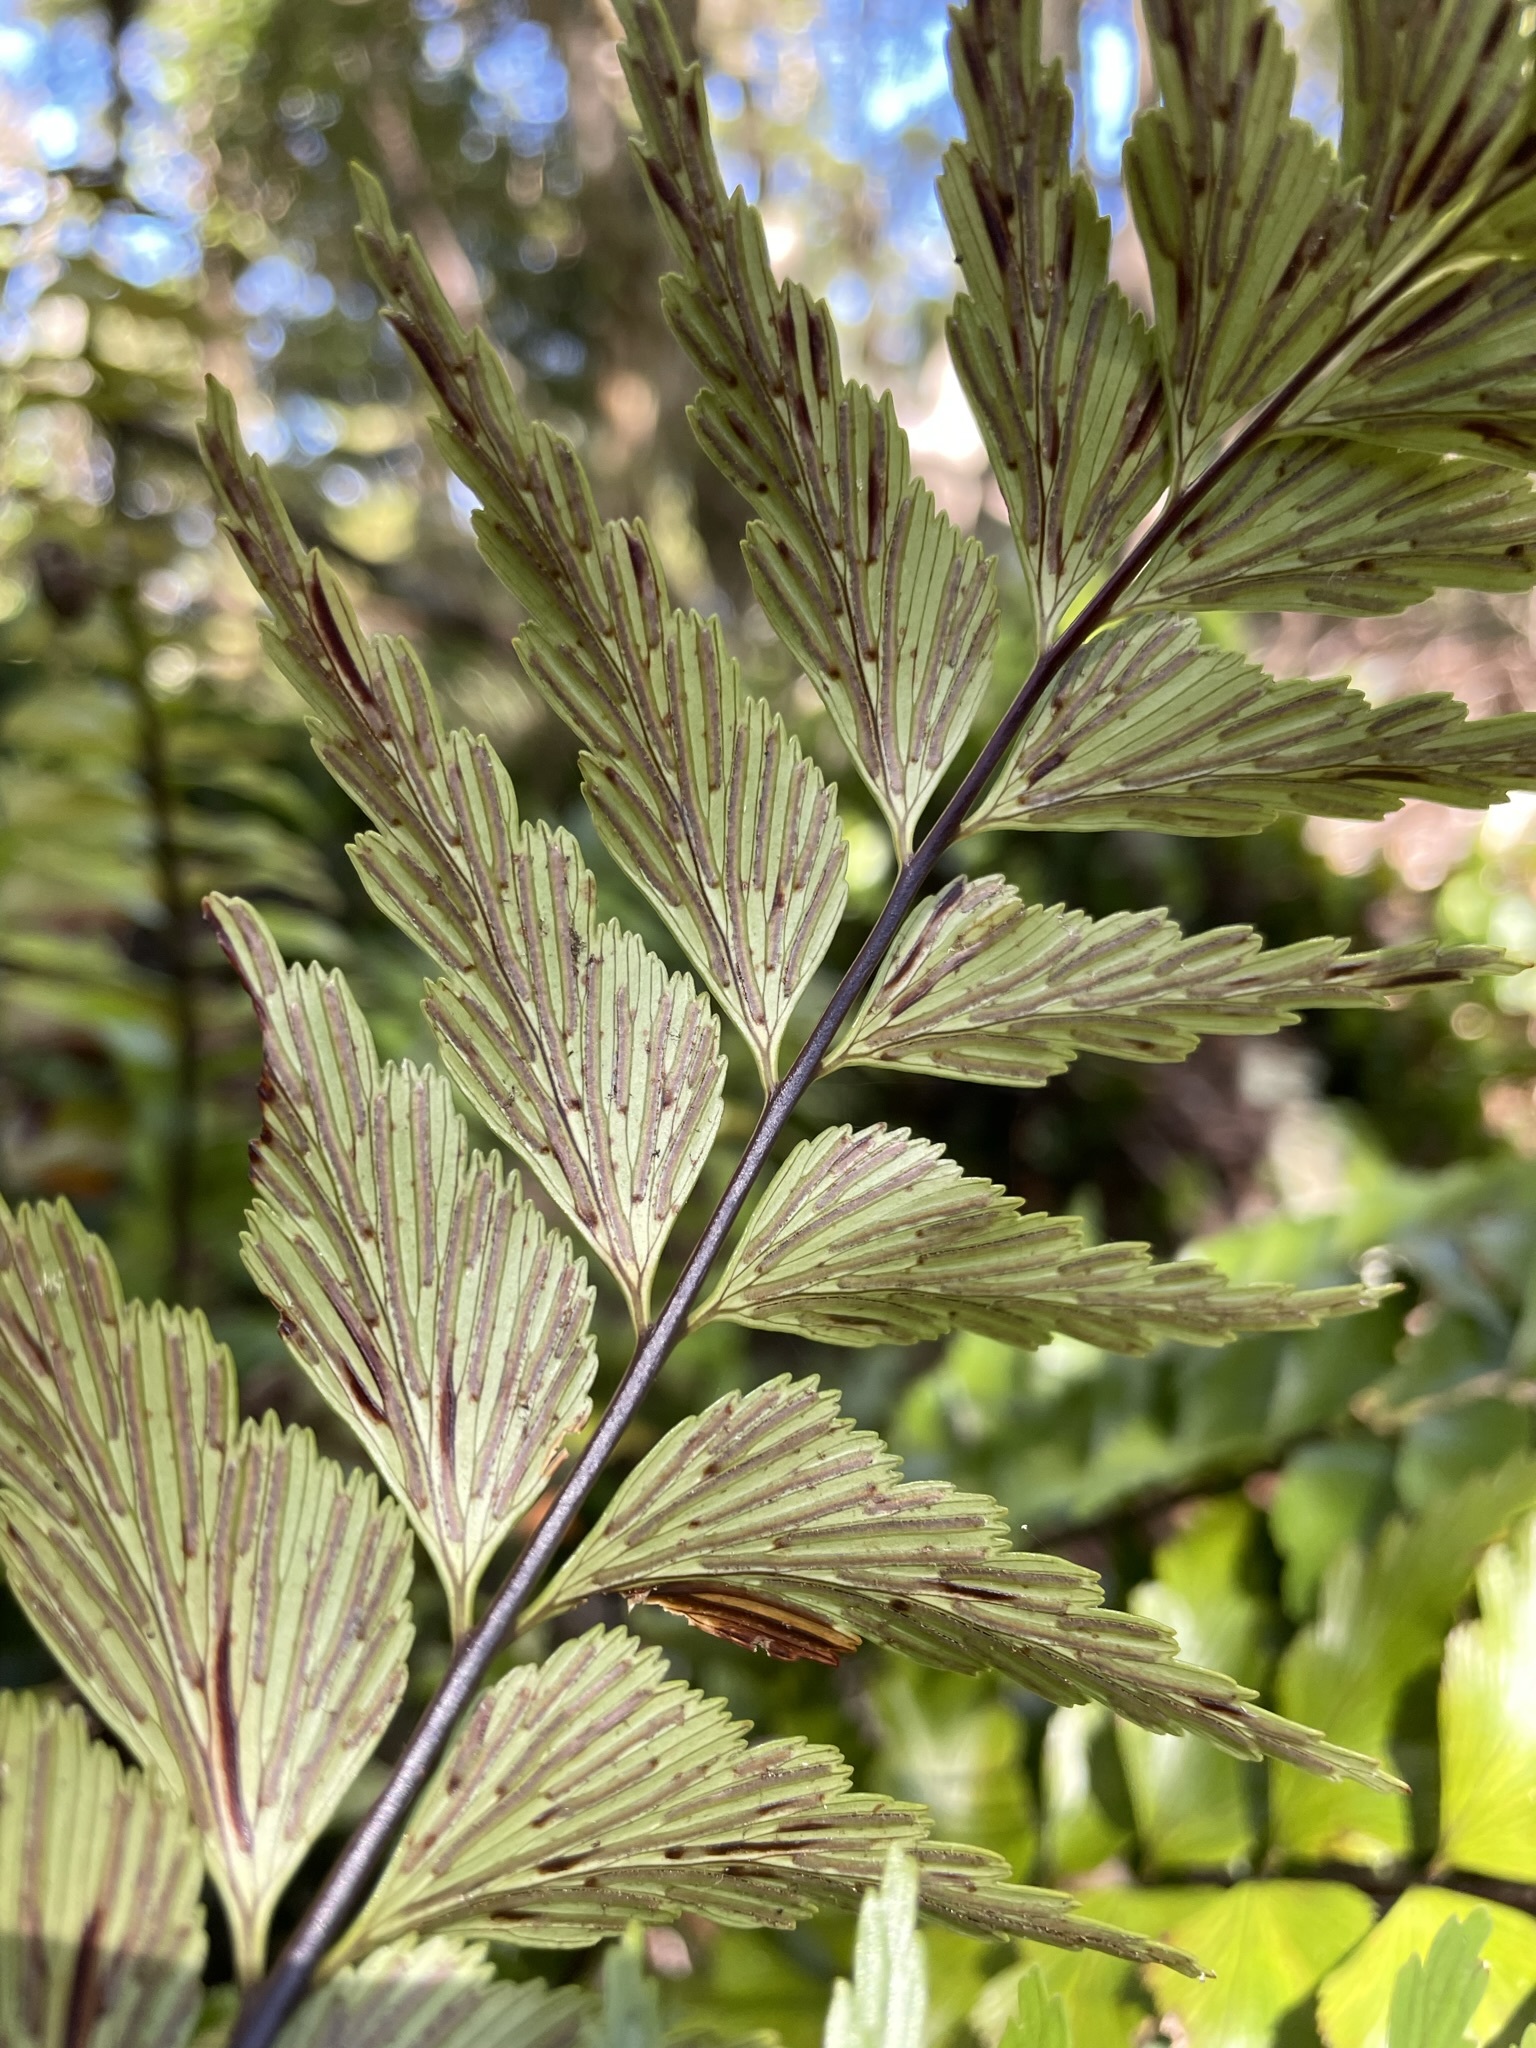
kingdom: Plantae
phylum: Tracheophyta
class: Polypodiopsida
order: Polypodiales
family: Aspleniaceae
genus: Asplenium
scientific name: Asplenium polyodon
